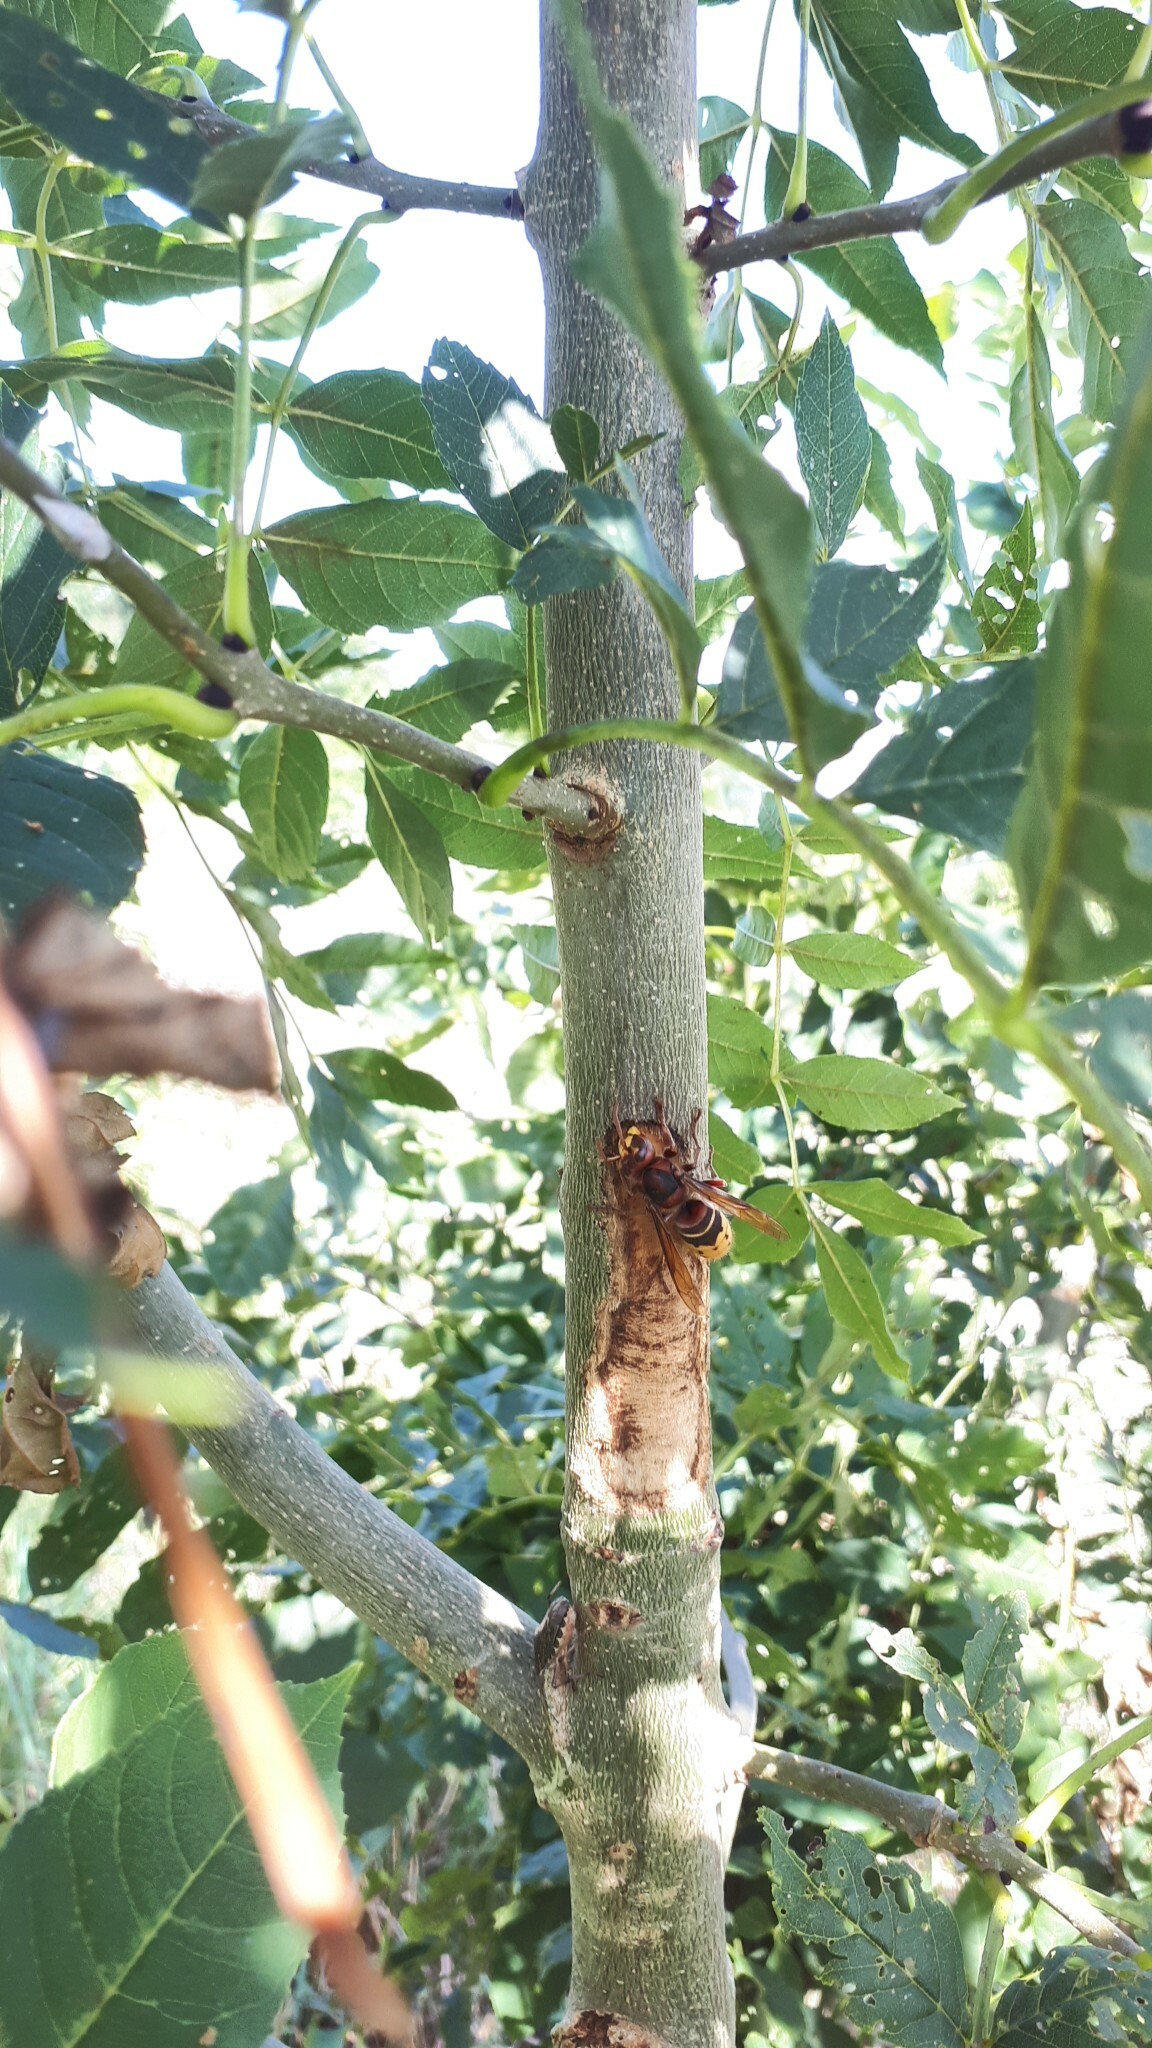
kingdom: Animalia
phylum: Arthropoda
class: Insecta
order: Hymenoptera
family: Vespidae
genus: Vespa
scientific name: Vespa crabro
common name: Hornet
